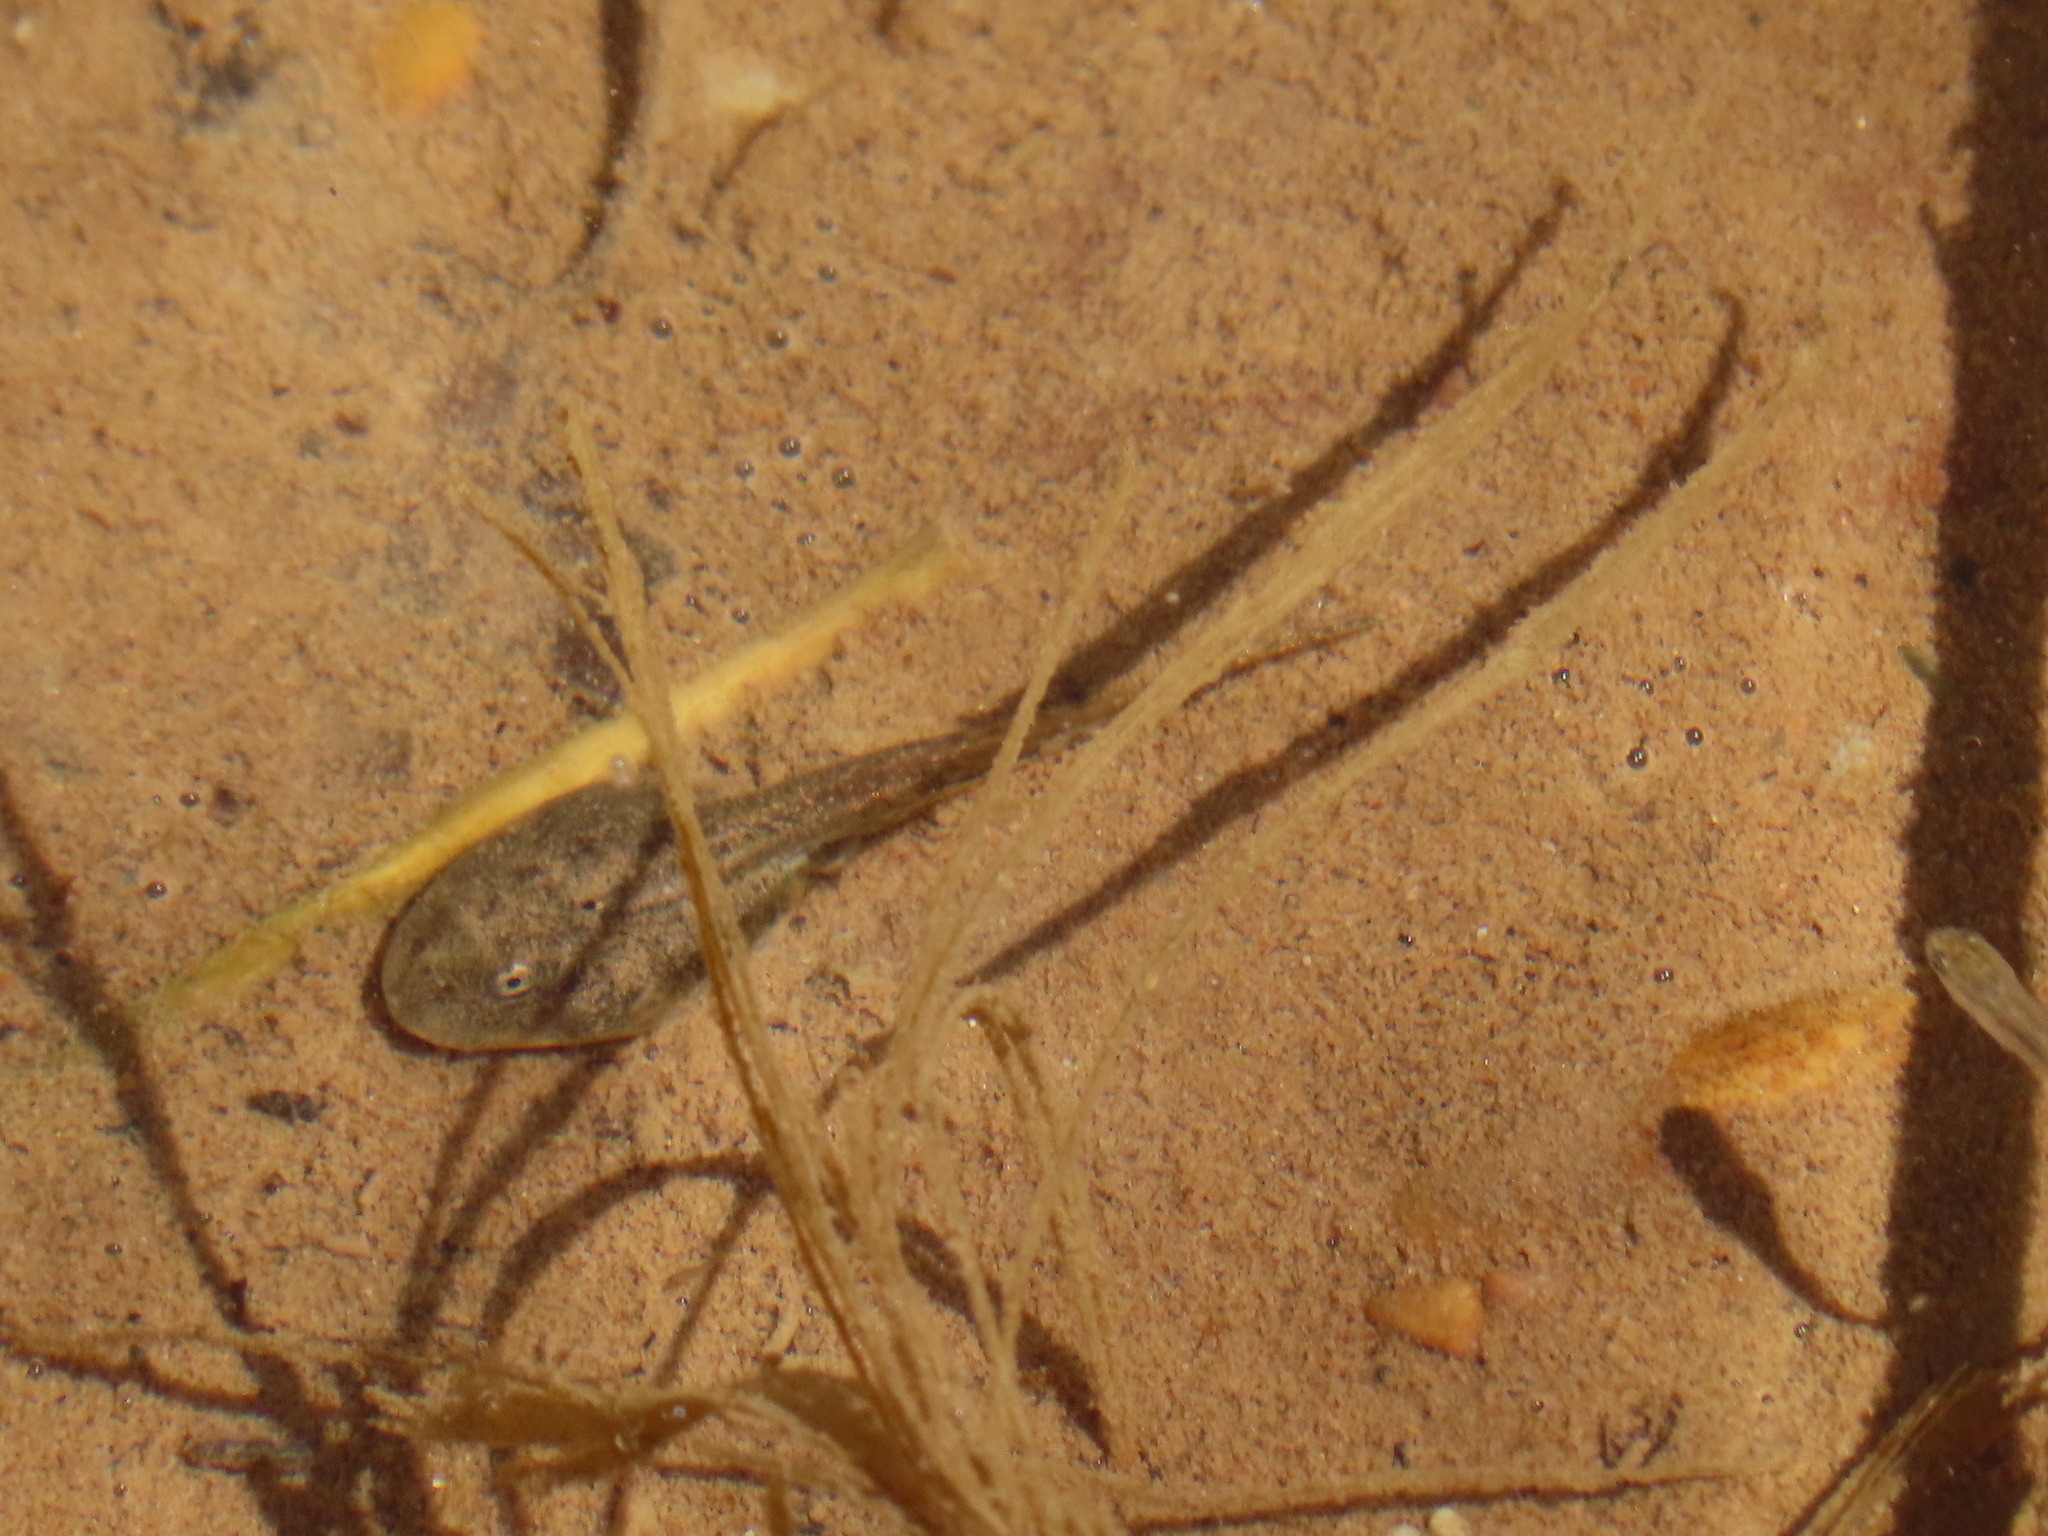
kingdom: Animalia
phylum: Chordata
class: Amphibia
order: Anura
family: Bufonidae
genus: Anaxyrus
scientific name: Anaxyrus microscaphus
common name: Arizona toad
